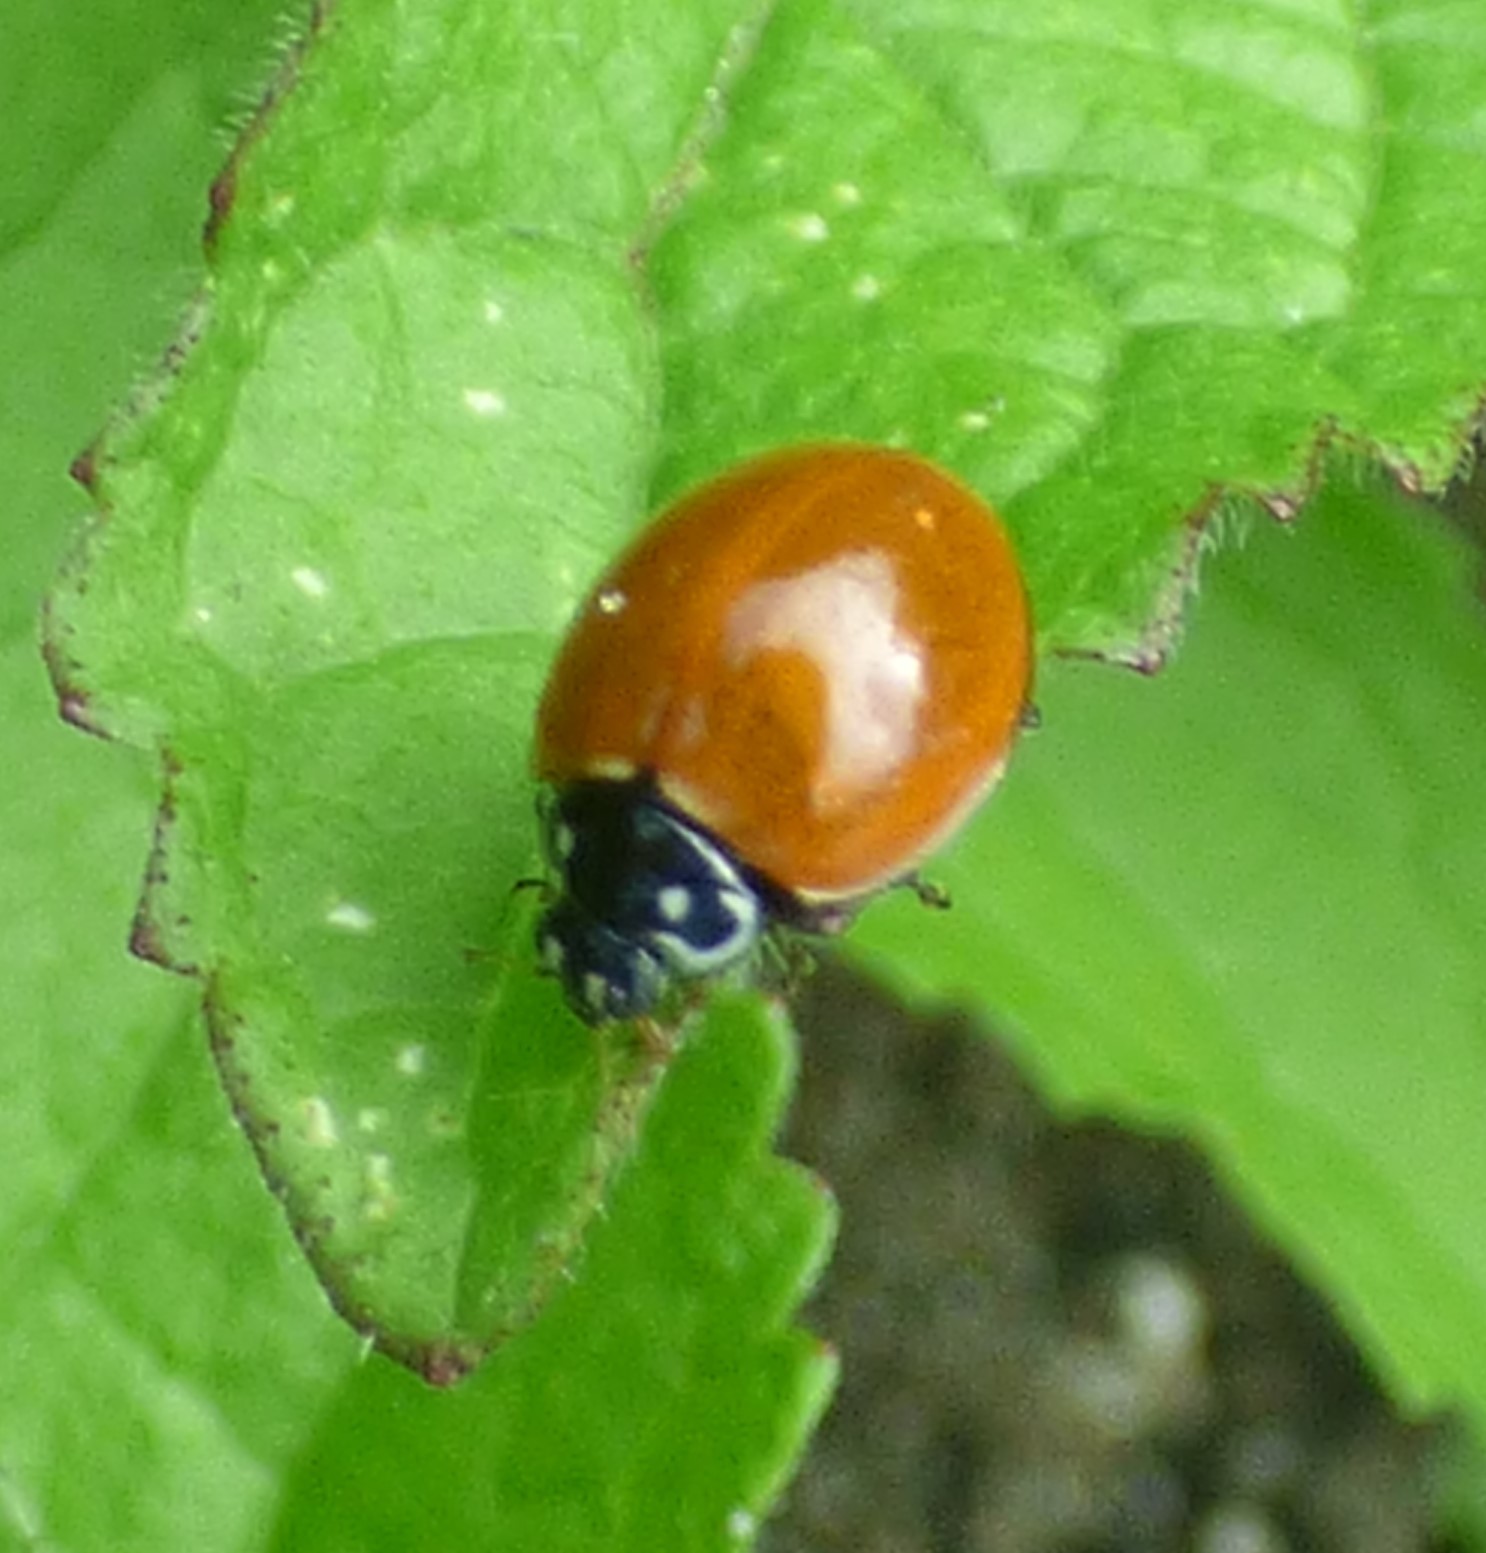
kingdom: Animalia
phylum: Arthropoda
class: Insecta
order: Coleoptera
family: Coccinellidae
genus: Cycloneda
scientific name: Cycloneda sanguinea
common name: Ladybird beetle
